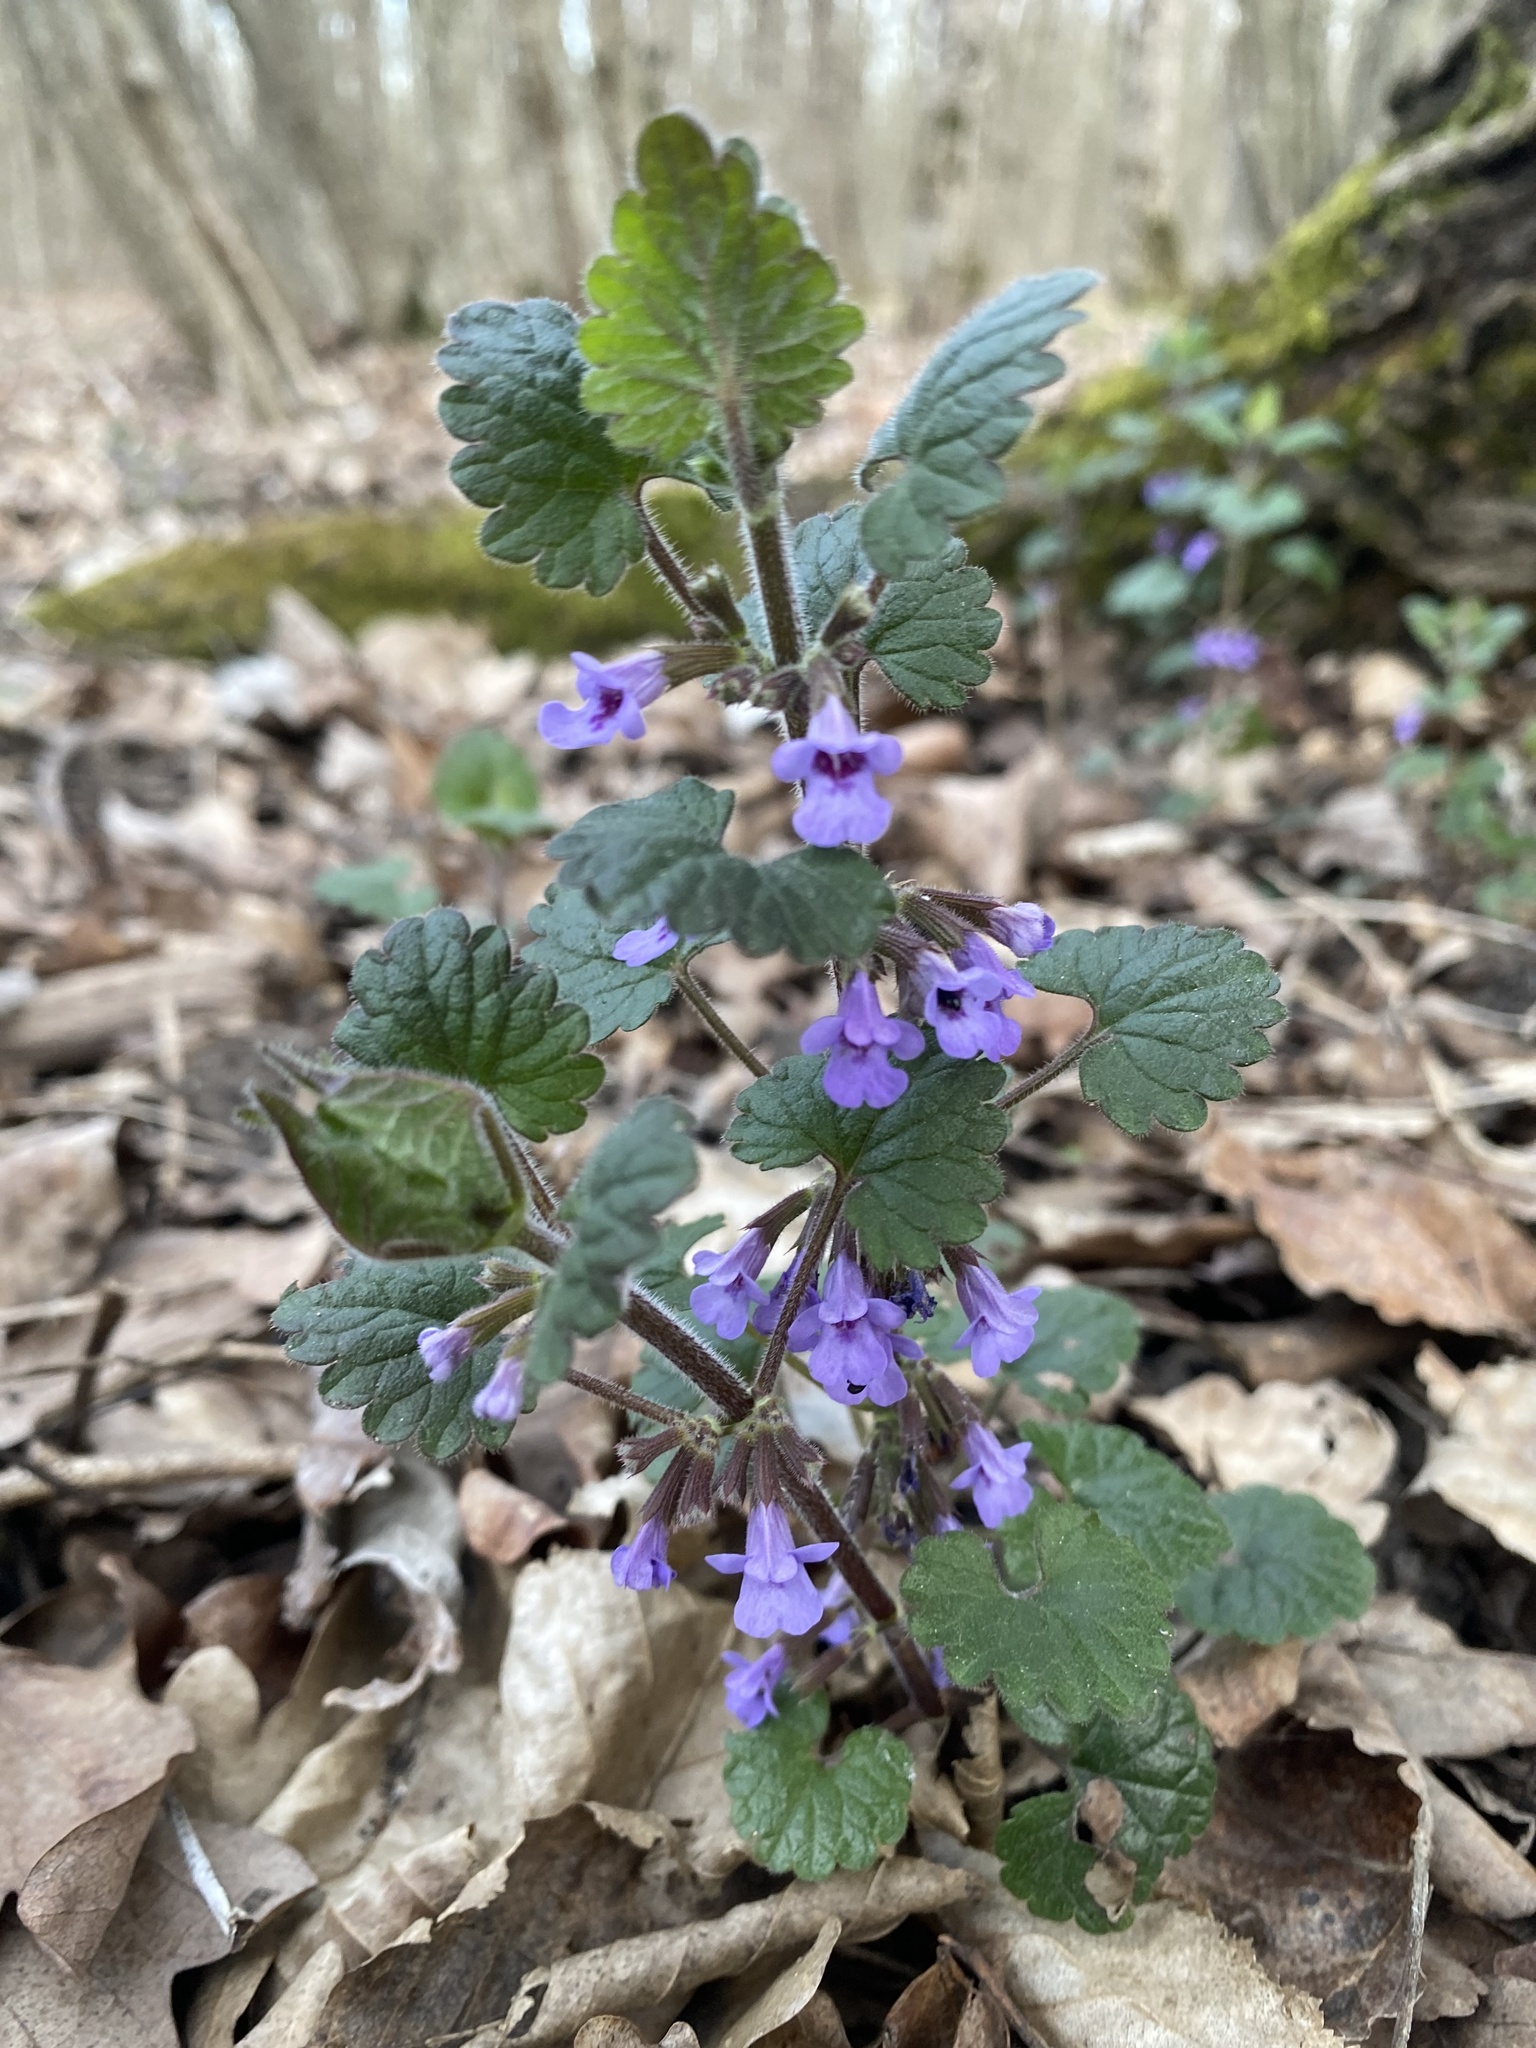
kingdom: Plantae
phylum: Tracheophyta
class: Magnoliopsida
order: Lamiales
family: Lamiaceae
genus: Glechoma
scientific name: Glechoma hederacea
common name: Ground ivy
